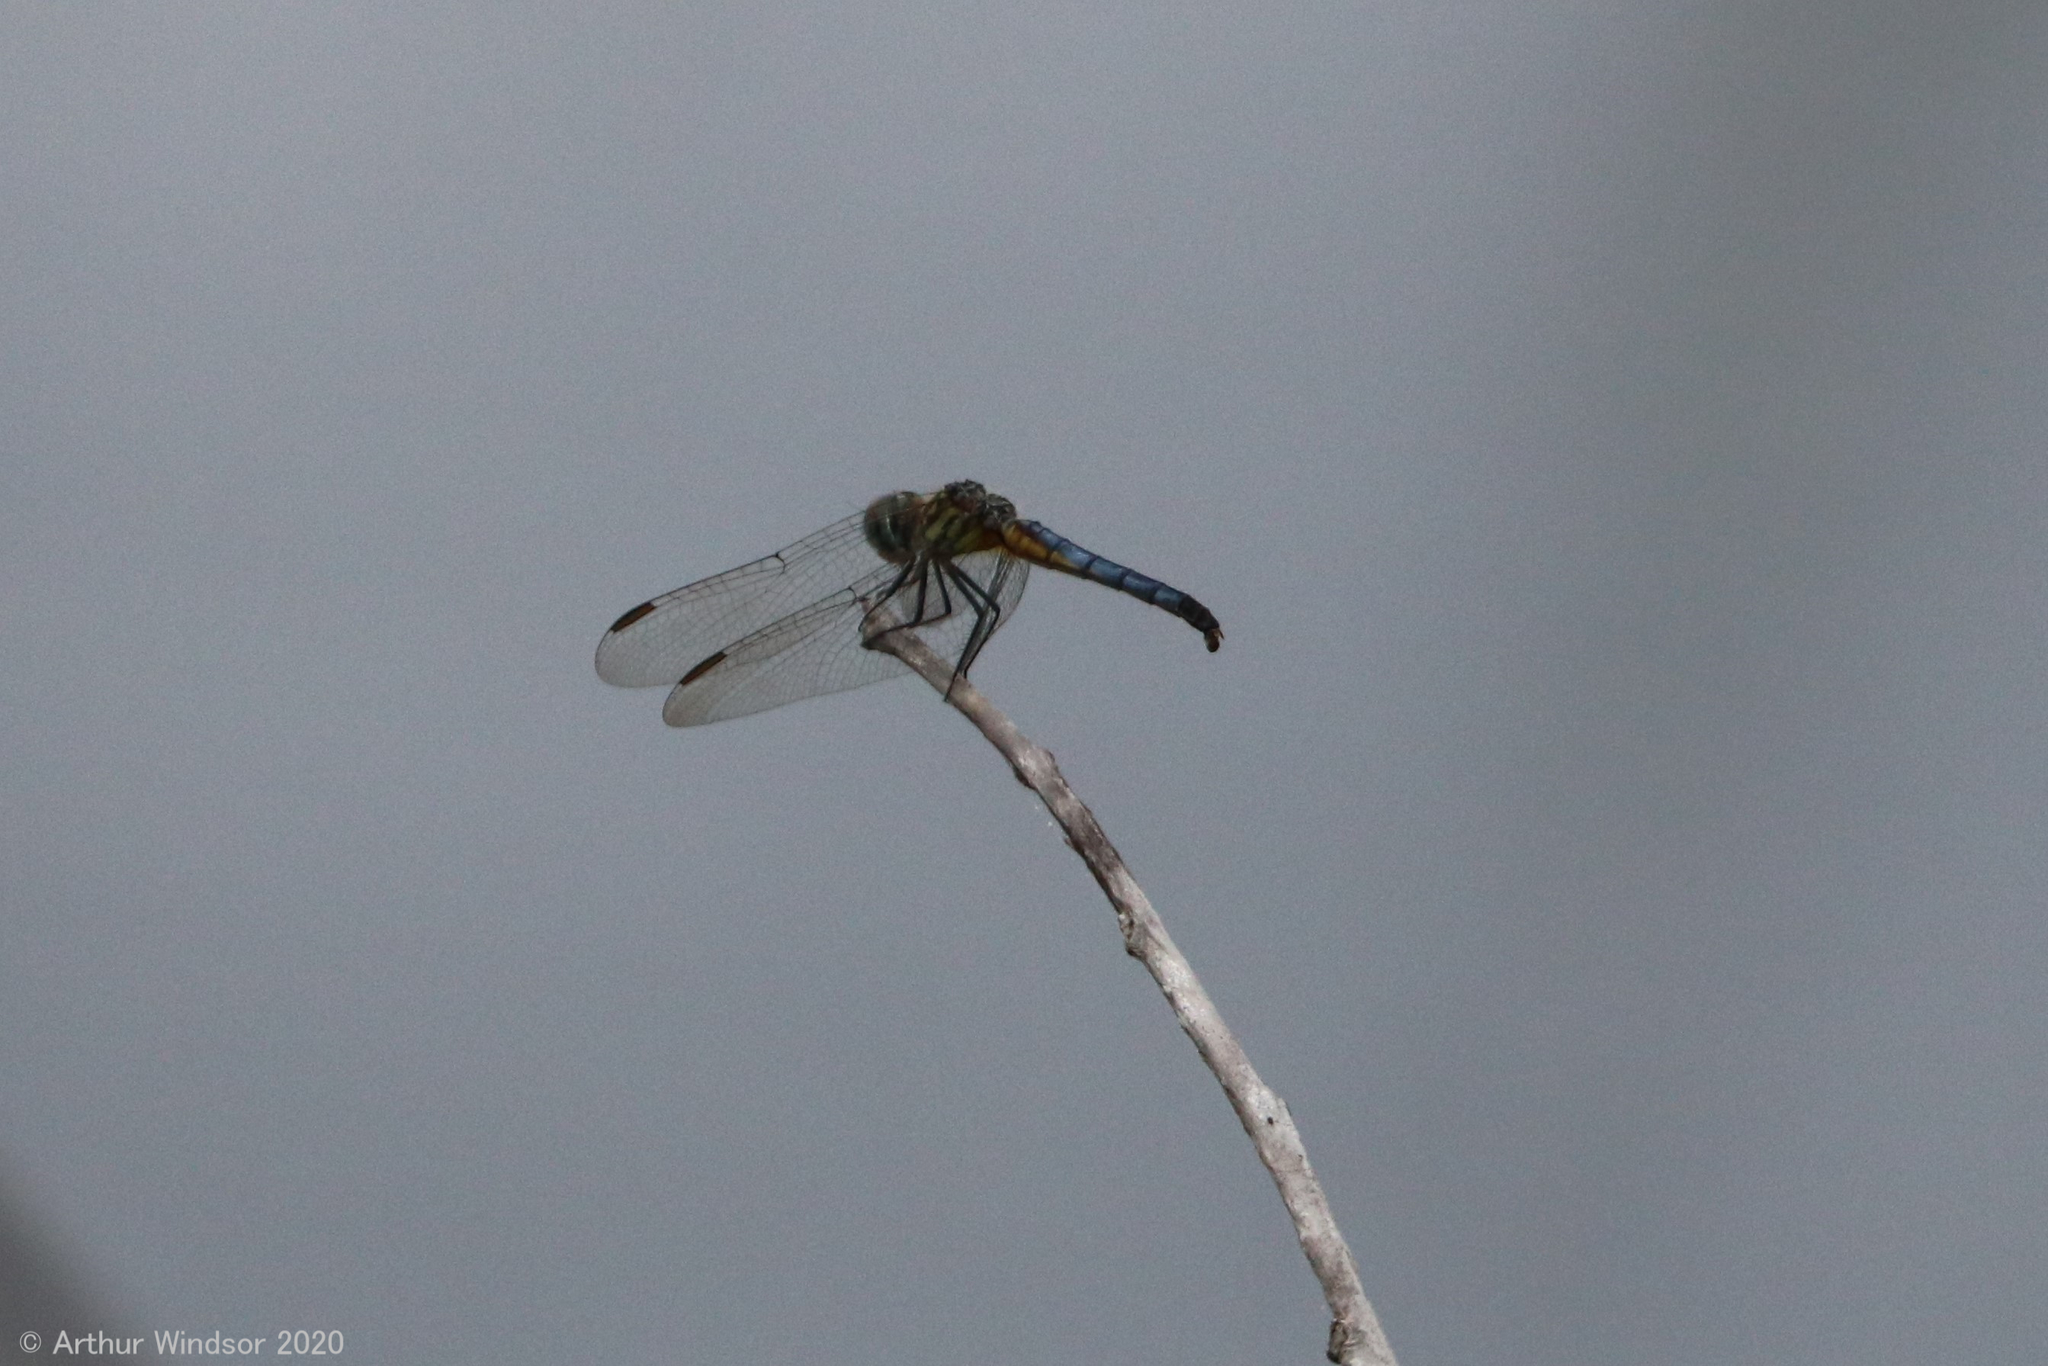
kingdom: Animalia
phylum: Arthropoda
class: Insecta
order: Odonata
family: Libellulidae
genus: Pachydiplax
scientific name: Pachydiplax longipennis
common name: Blue dasher
